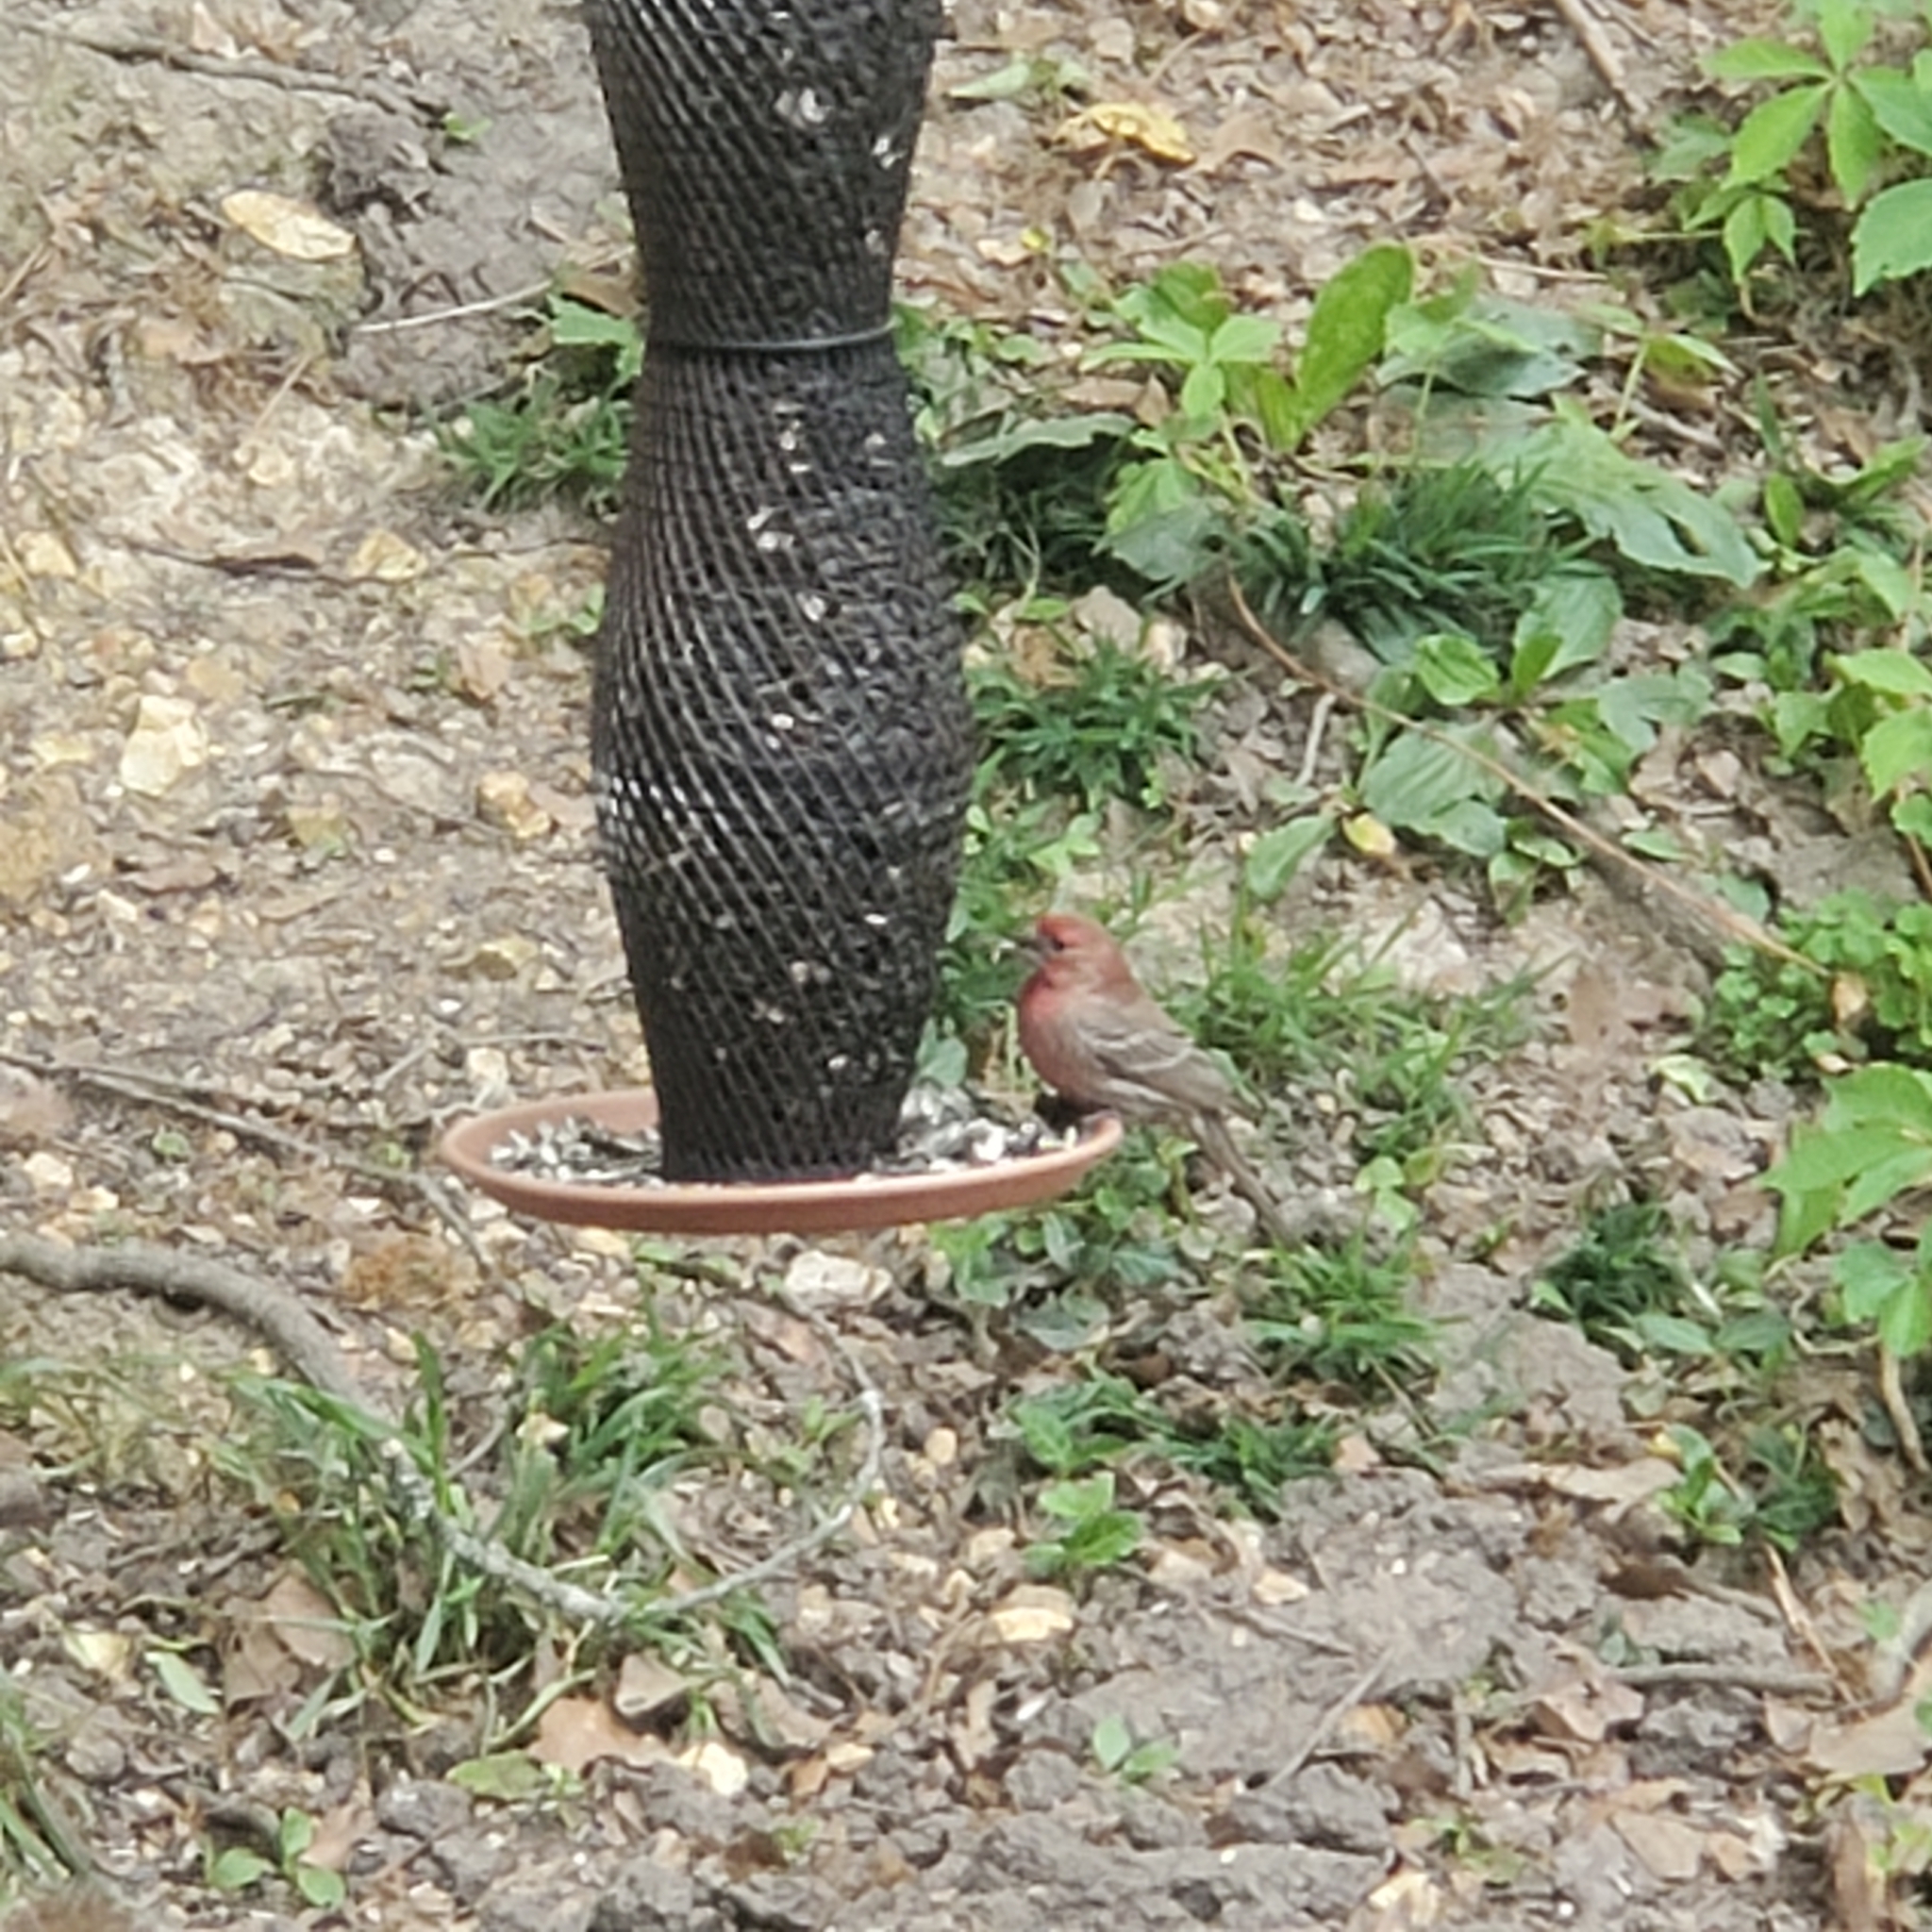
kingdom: Animalia
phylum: Chordata
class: Aves
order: Passeriformes
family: Fringillidae
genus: Haemorhous
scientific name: Haemorhous mexicanus
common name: House finch
